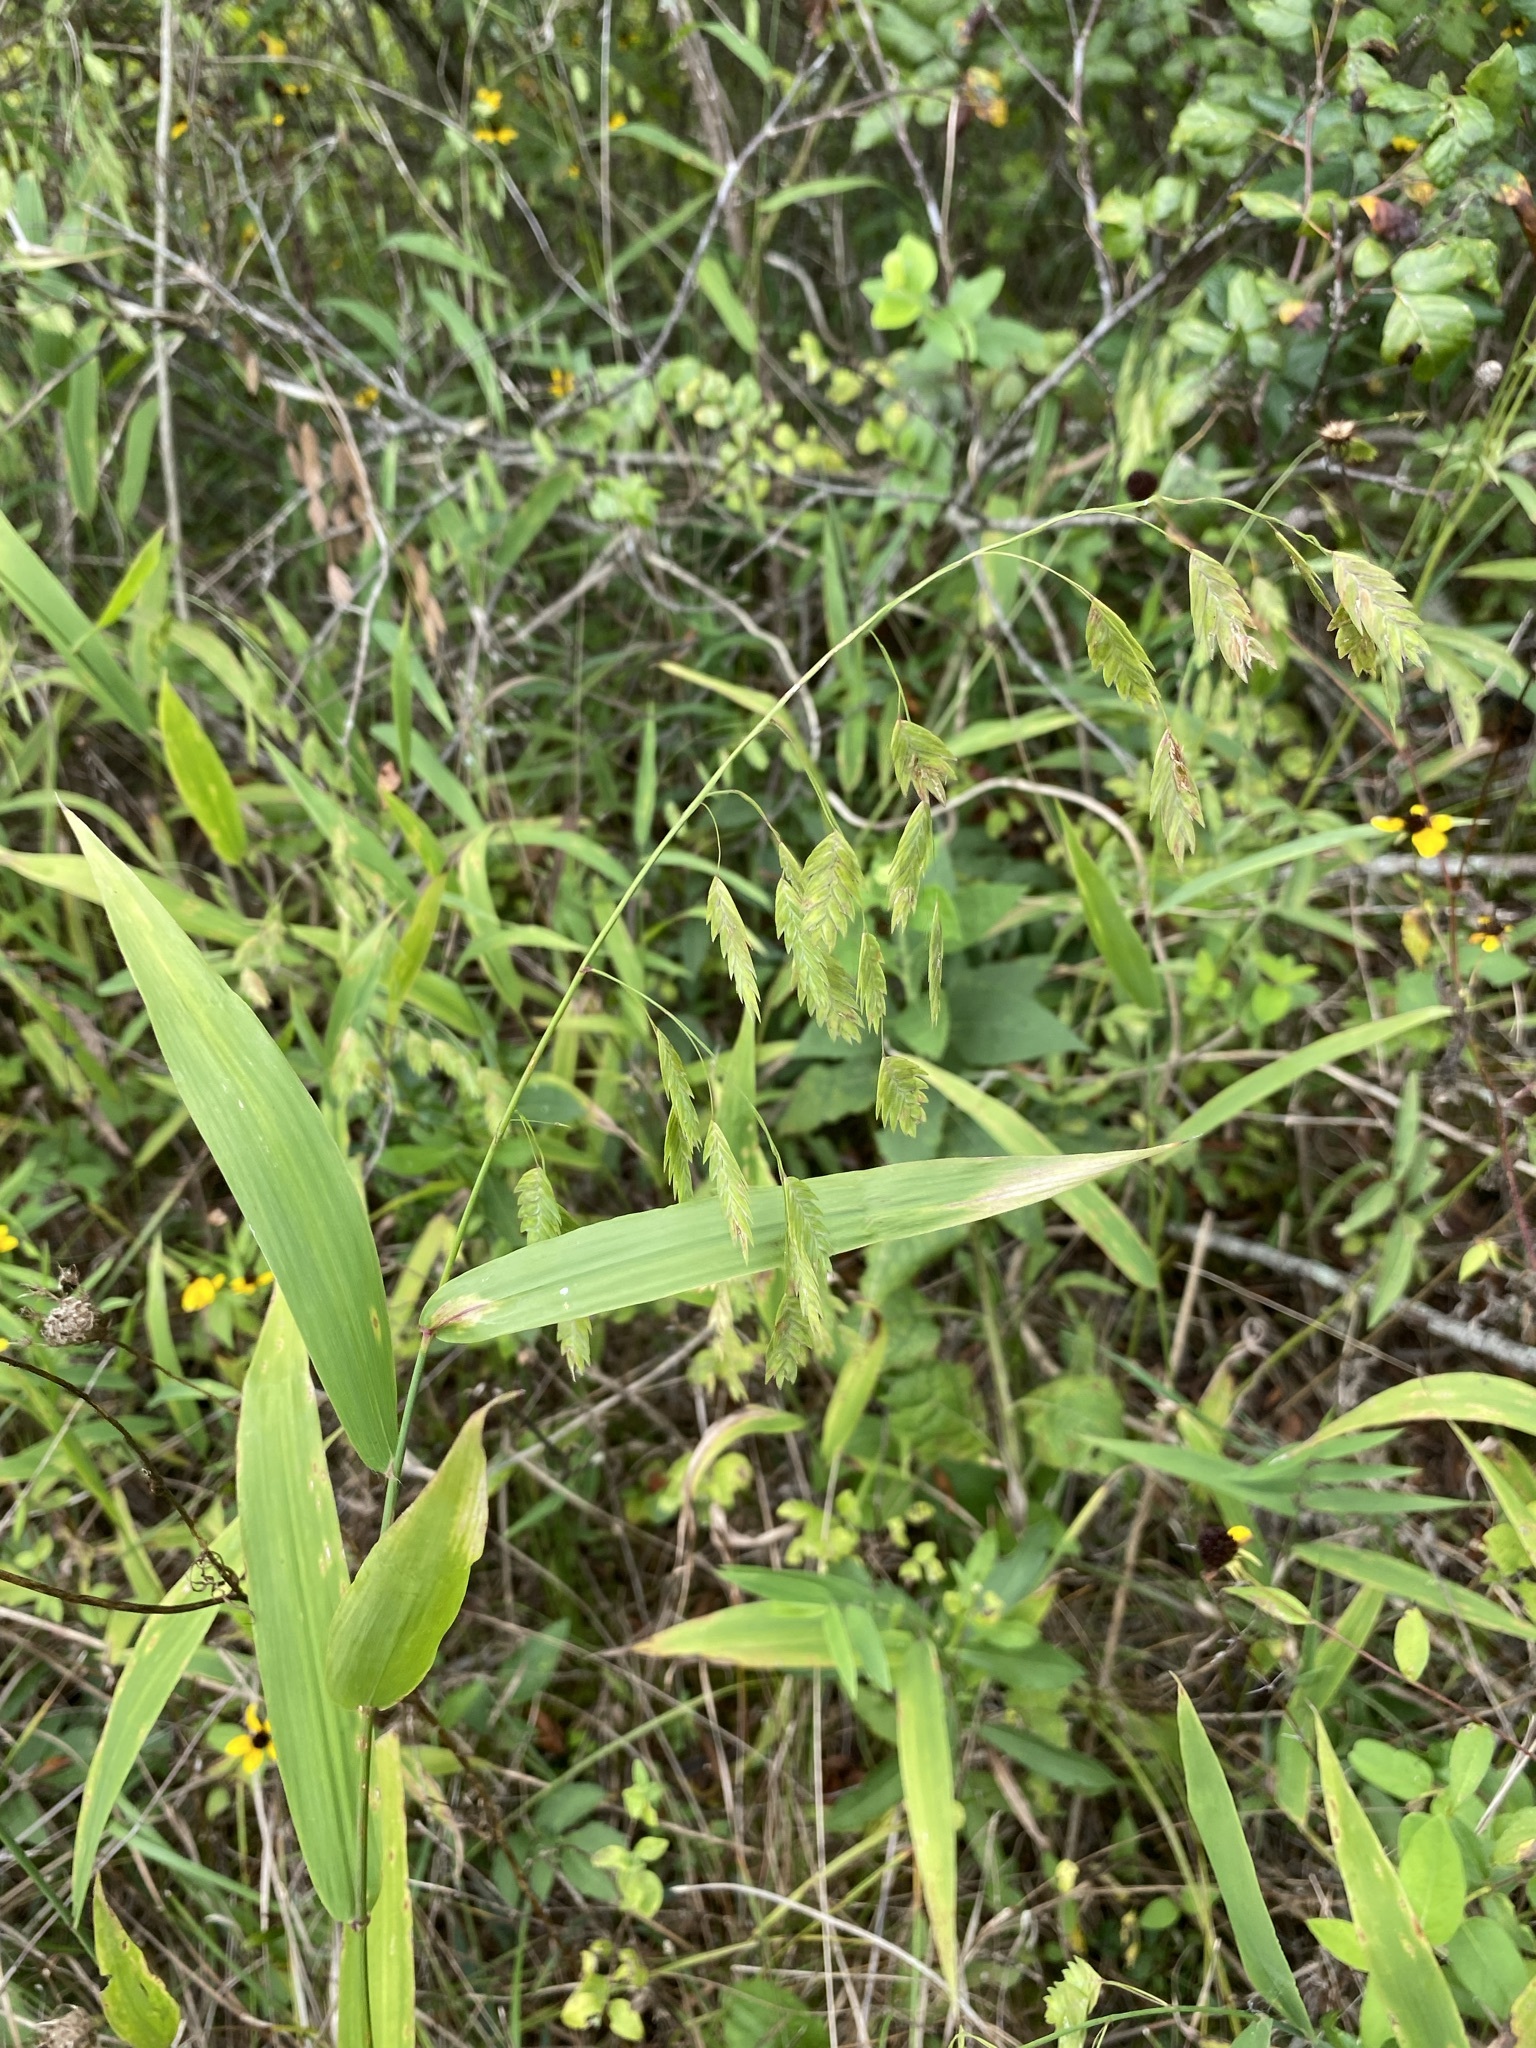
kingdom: Plantae
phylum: Tracheophyta
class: Liliopsida
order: Poales
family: Poaceae
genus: Chasmanthium
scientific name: Chasmanthium latifolium
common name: Broad-leaved chasmanthium
